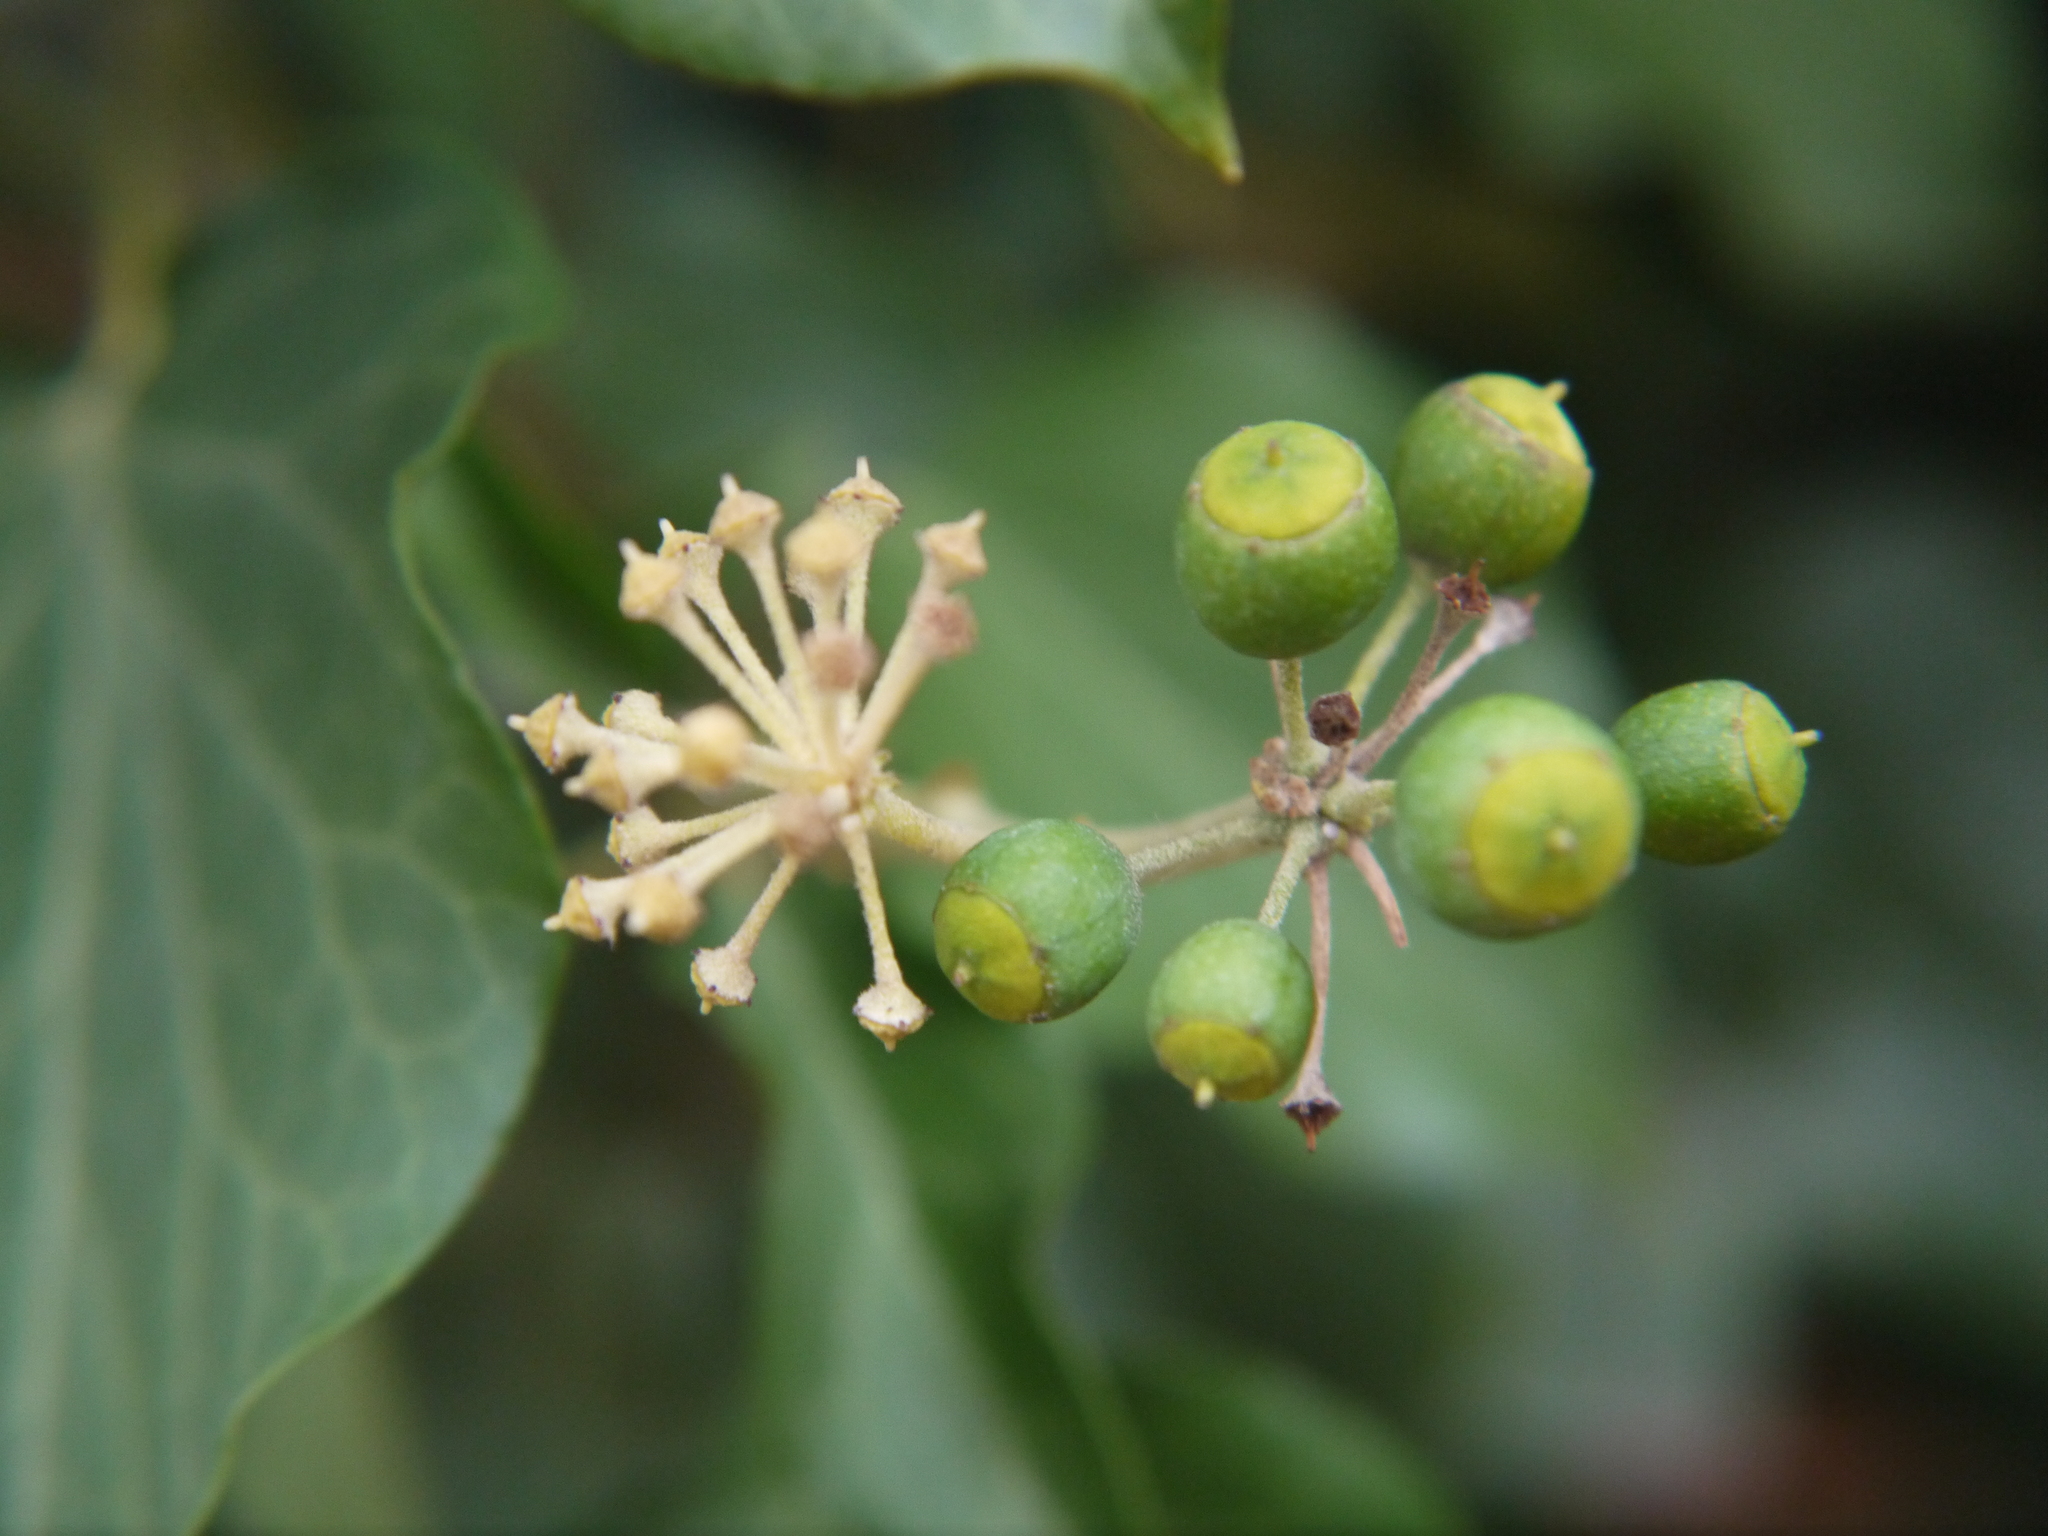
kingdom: Plantae
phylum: Tracheophyta
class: Magnoliopsida
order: Apiales
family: Araliaceae
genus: Hedera
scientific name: Hedera helix
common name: Ivy
